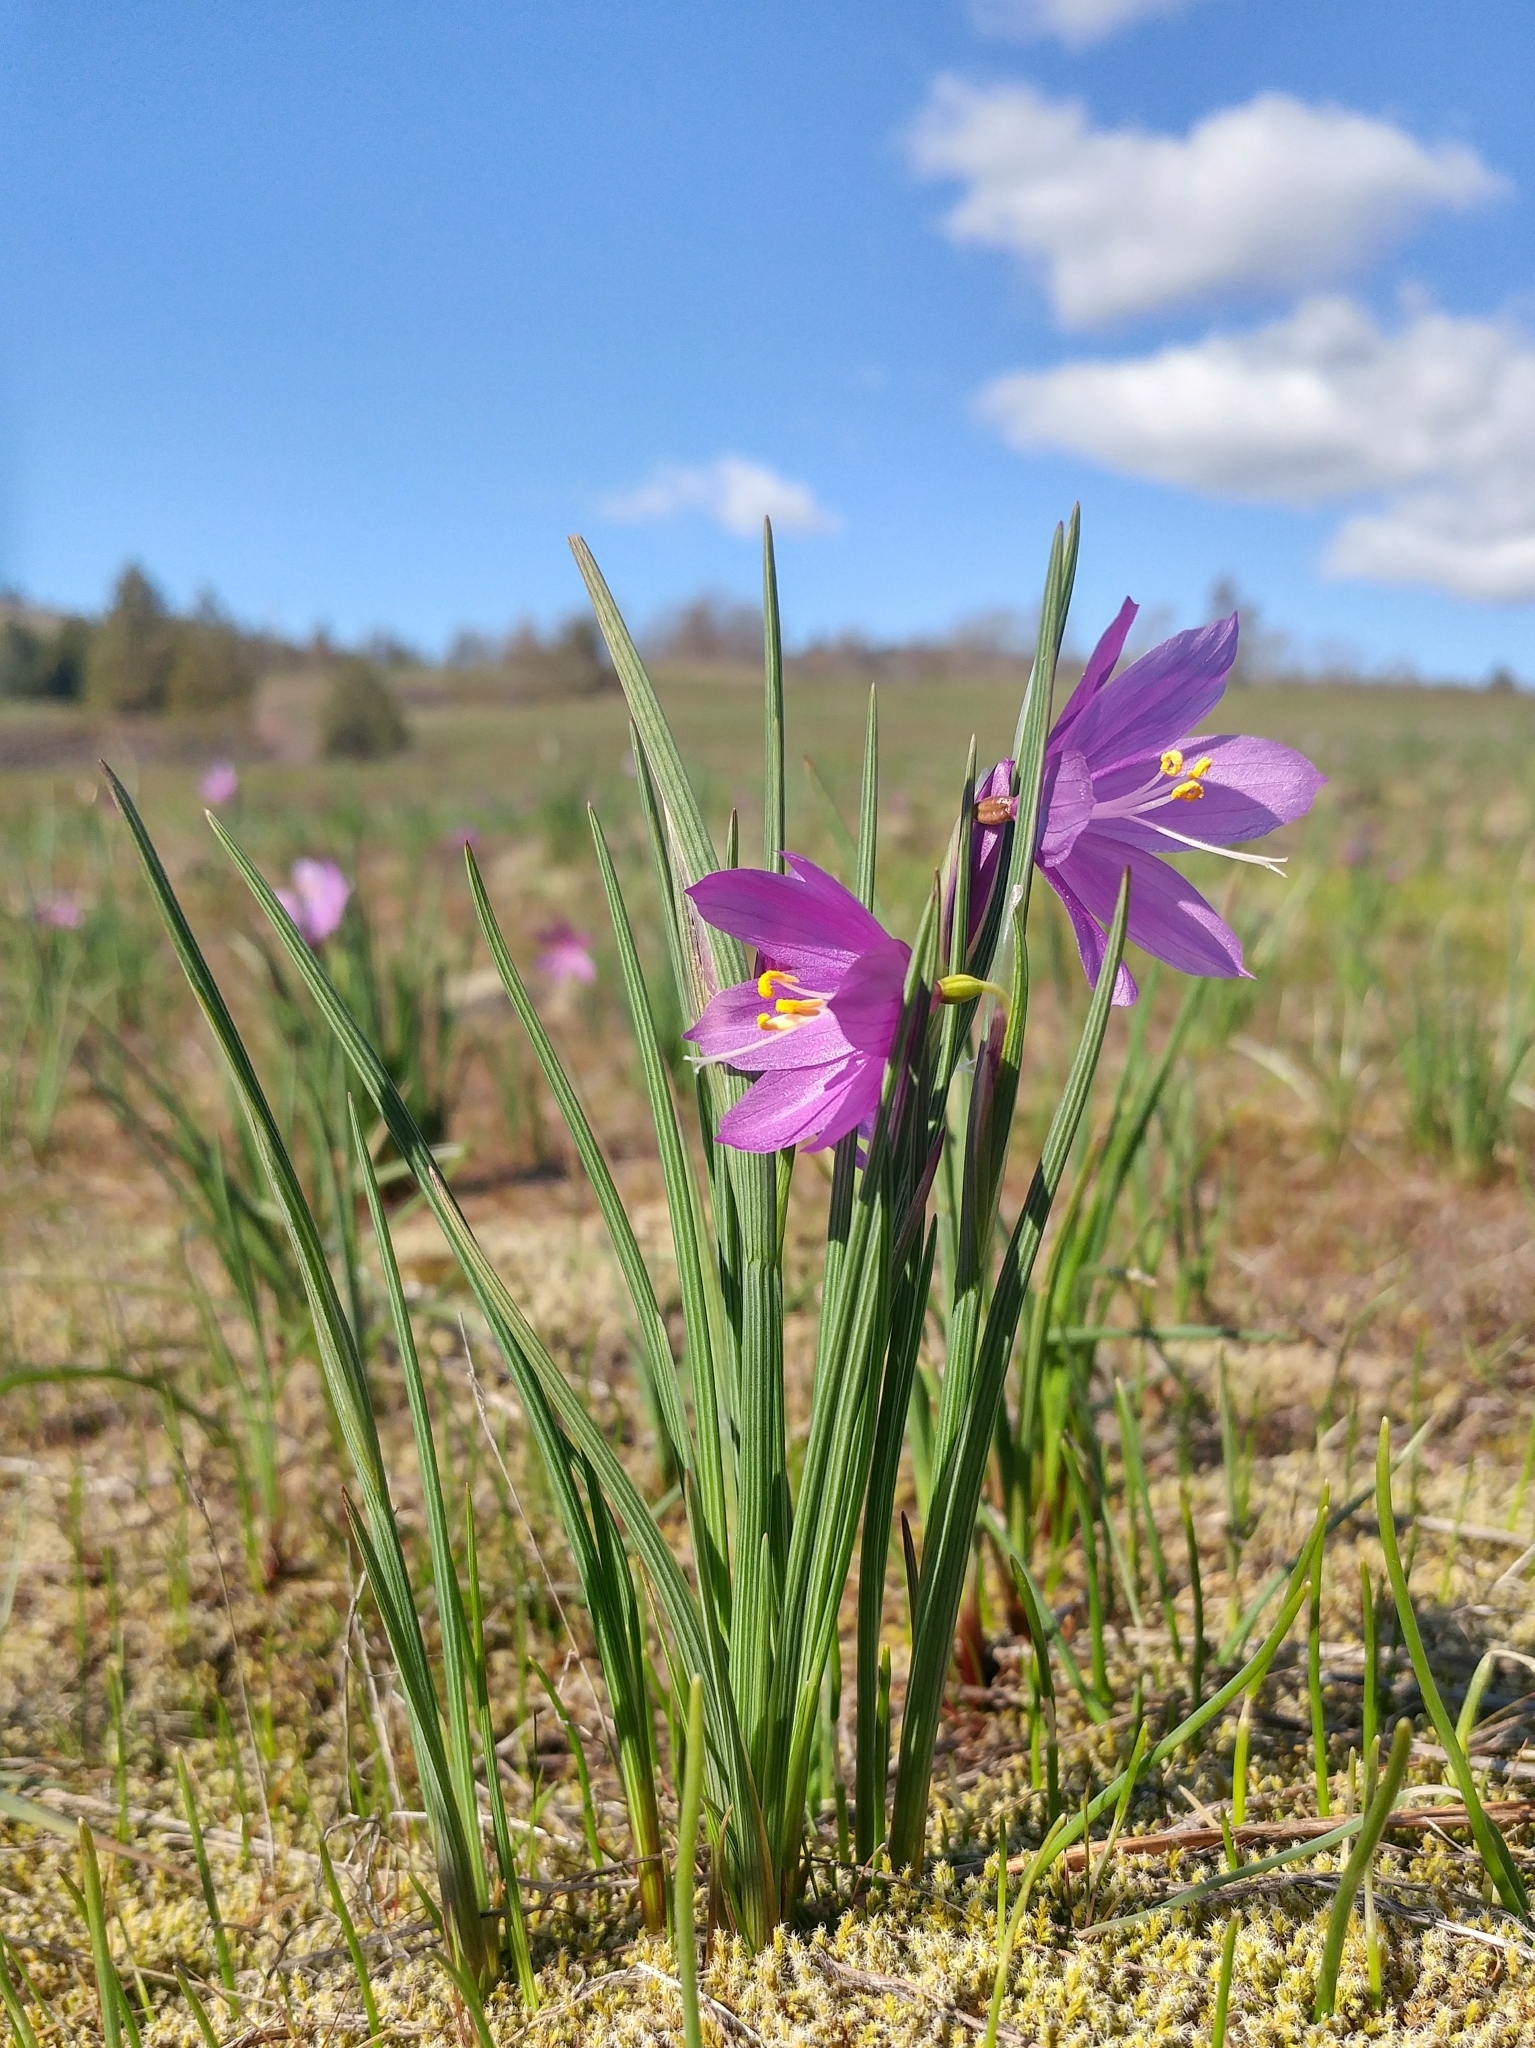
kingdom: Plantae
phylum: Tracheophyta
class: Liliopsida
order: Asparagales
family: Iridaceae
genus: Olsynium
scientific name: Olsynium douglasii
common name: Douglas' grasswidow
